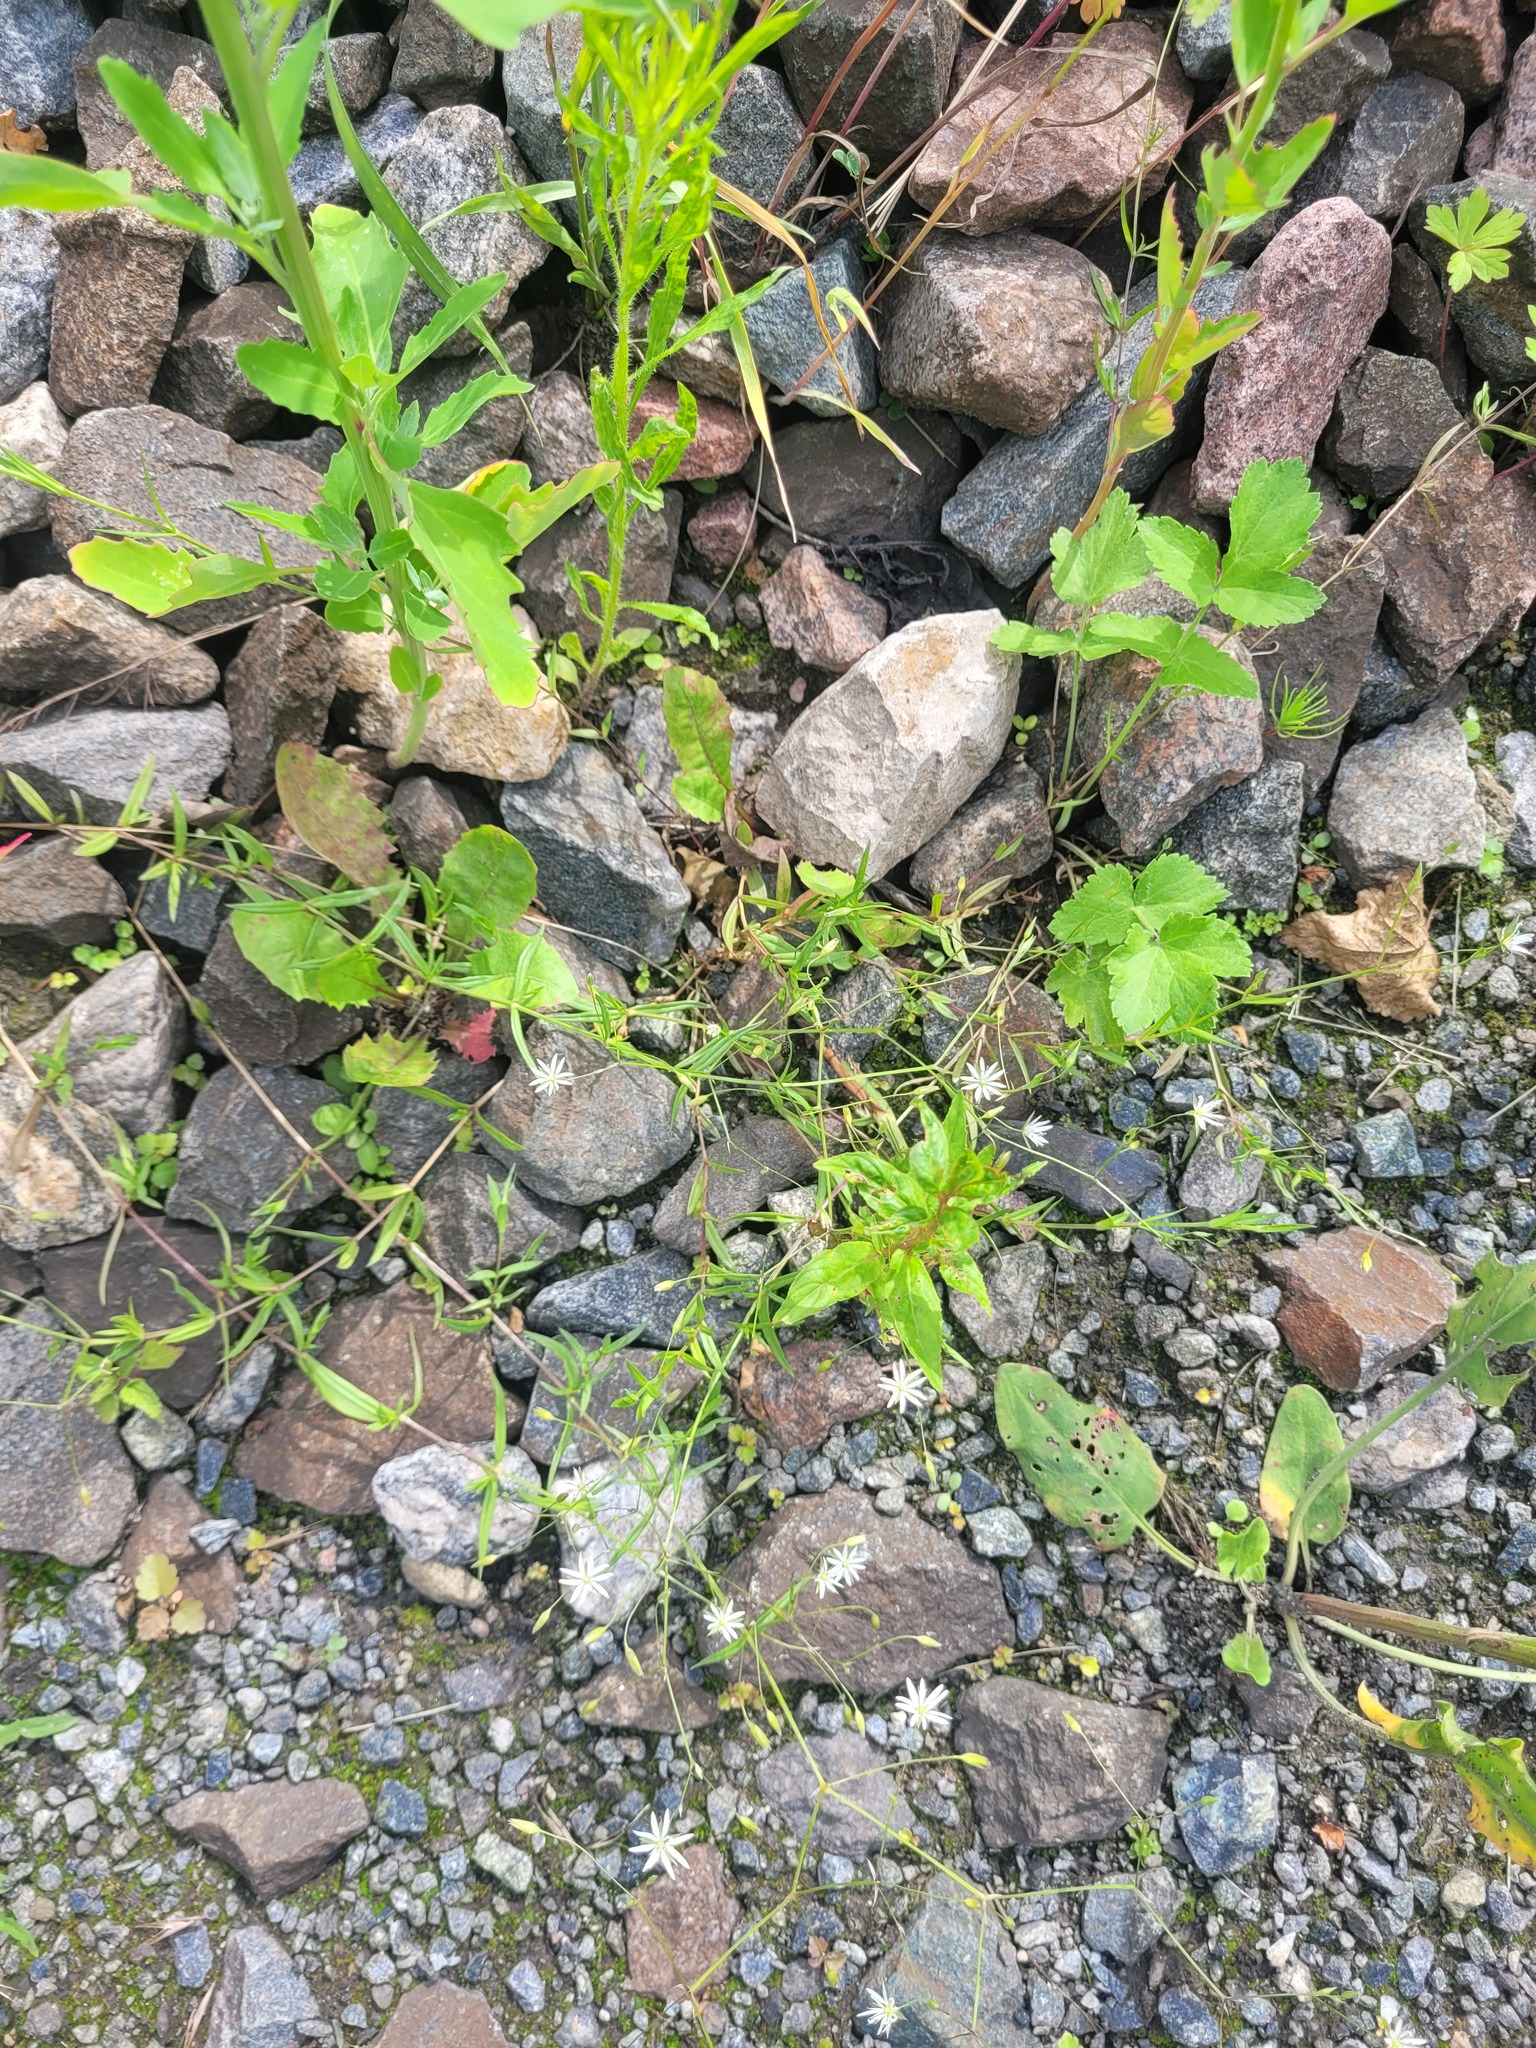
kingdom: Plantae
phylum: Tracheophyta
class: Magnoliopsida
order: Caryophyllales
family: Caryophyllaceae
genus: Stellaria
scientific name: Stellaria graminea
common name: Grass-like starwort
